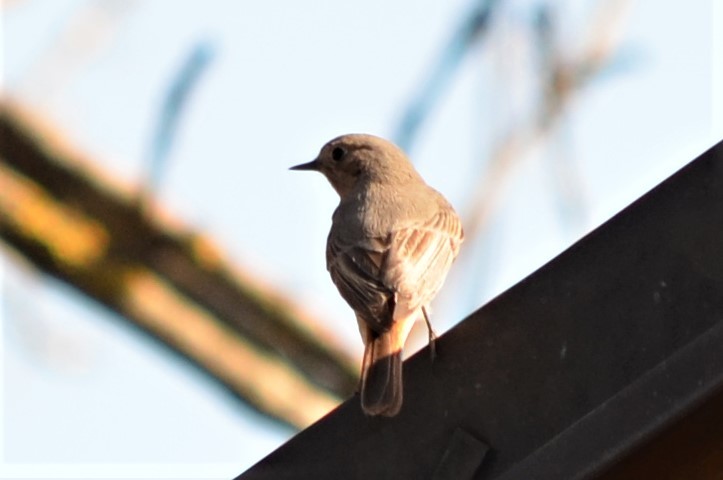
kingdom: Animalia
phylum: Chordata
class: Aves
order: Passeriformes
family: Muscicapidae
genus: Phoenicurus
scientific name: Phoenicurus ochruros
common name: Black redstart
